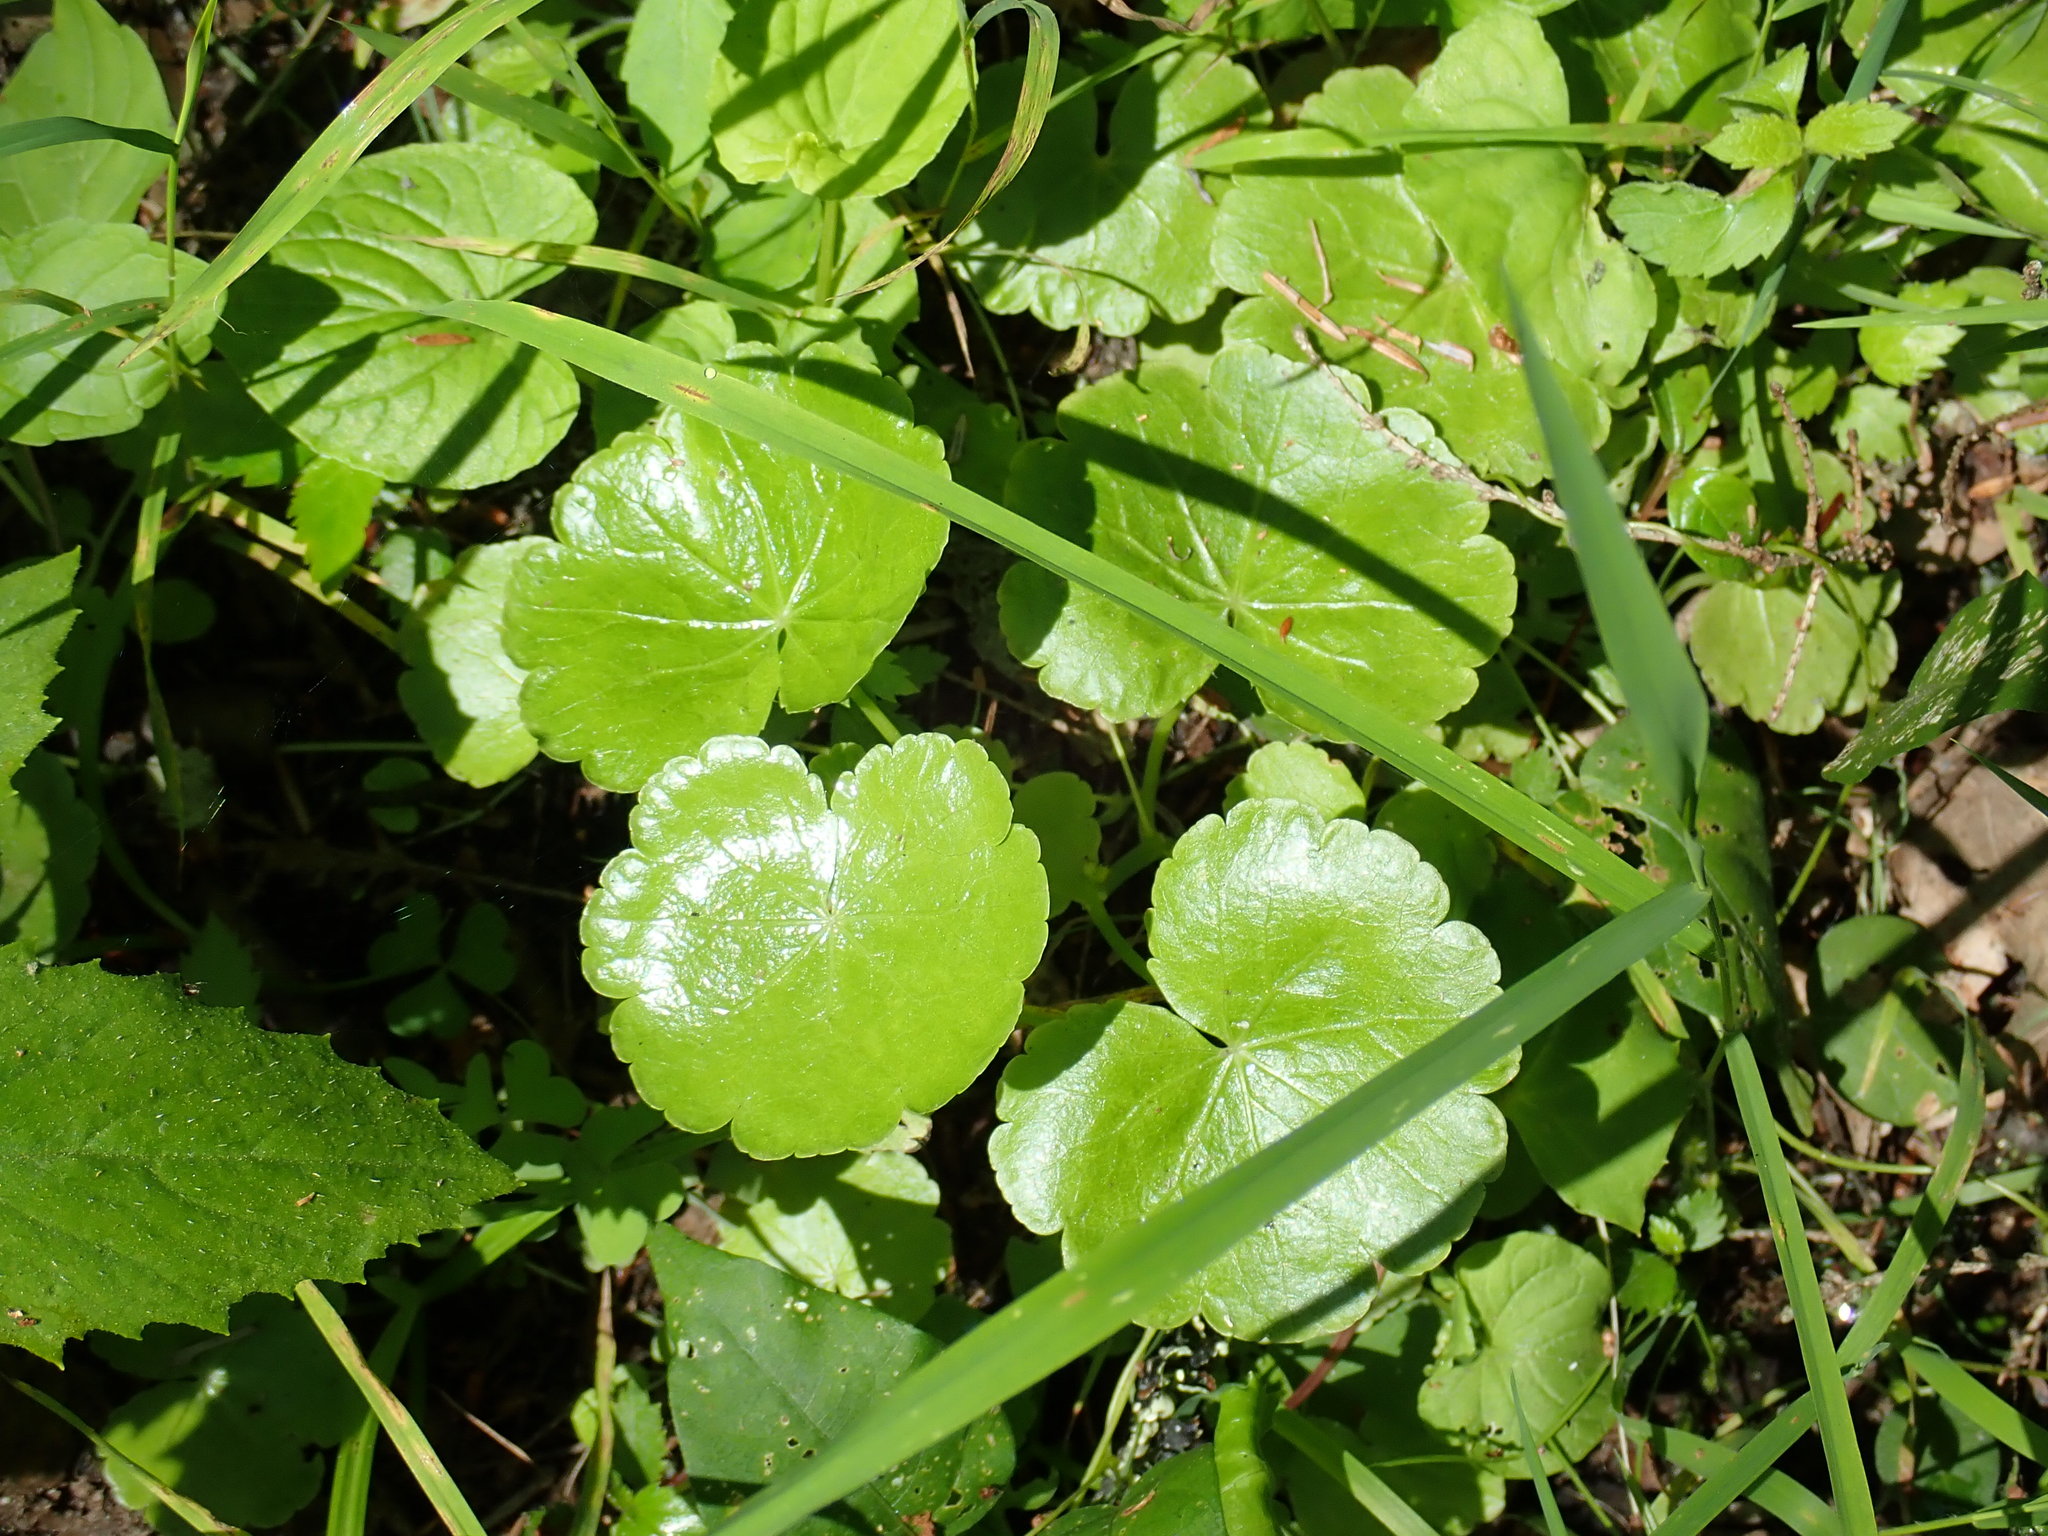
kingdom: Plantae
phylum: Tracheophyta
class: Magnoliopsida
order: Apiales
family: Araliaceae
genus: Hydrocotyle
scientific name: Hydrocotyle americana
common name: American water-pennywort
